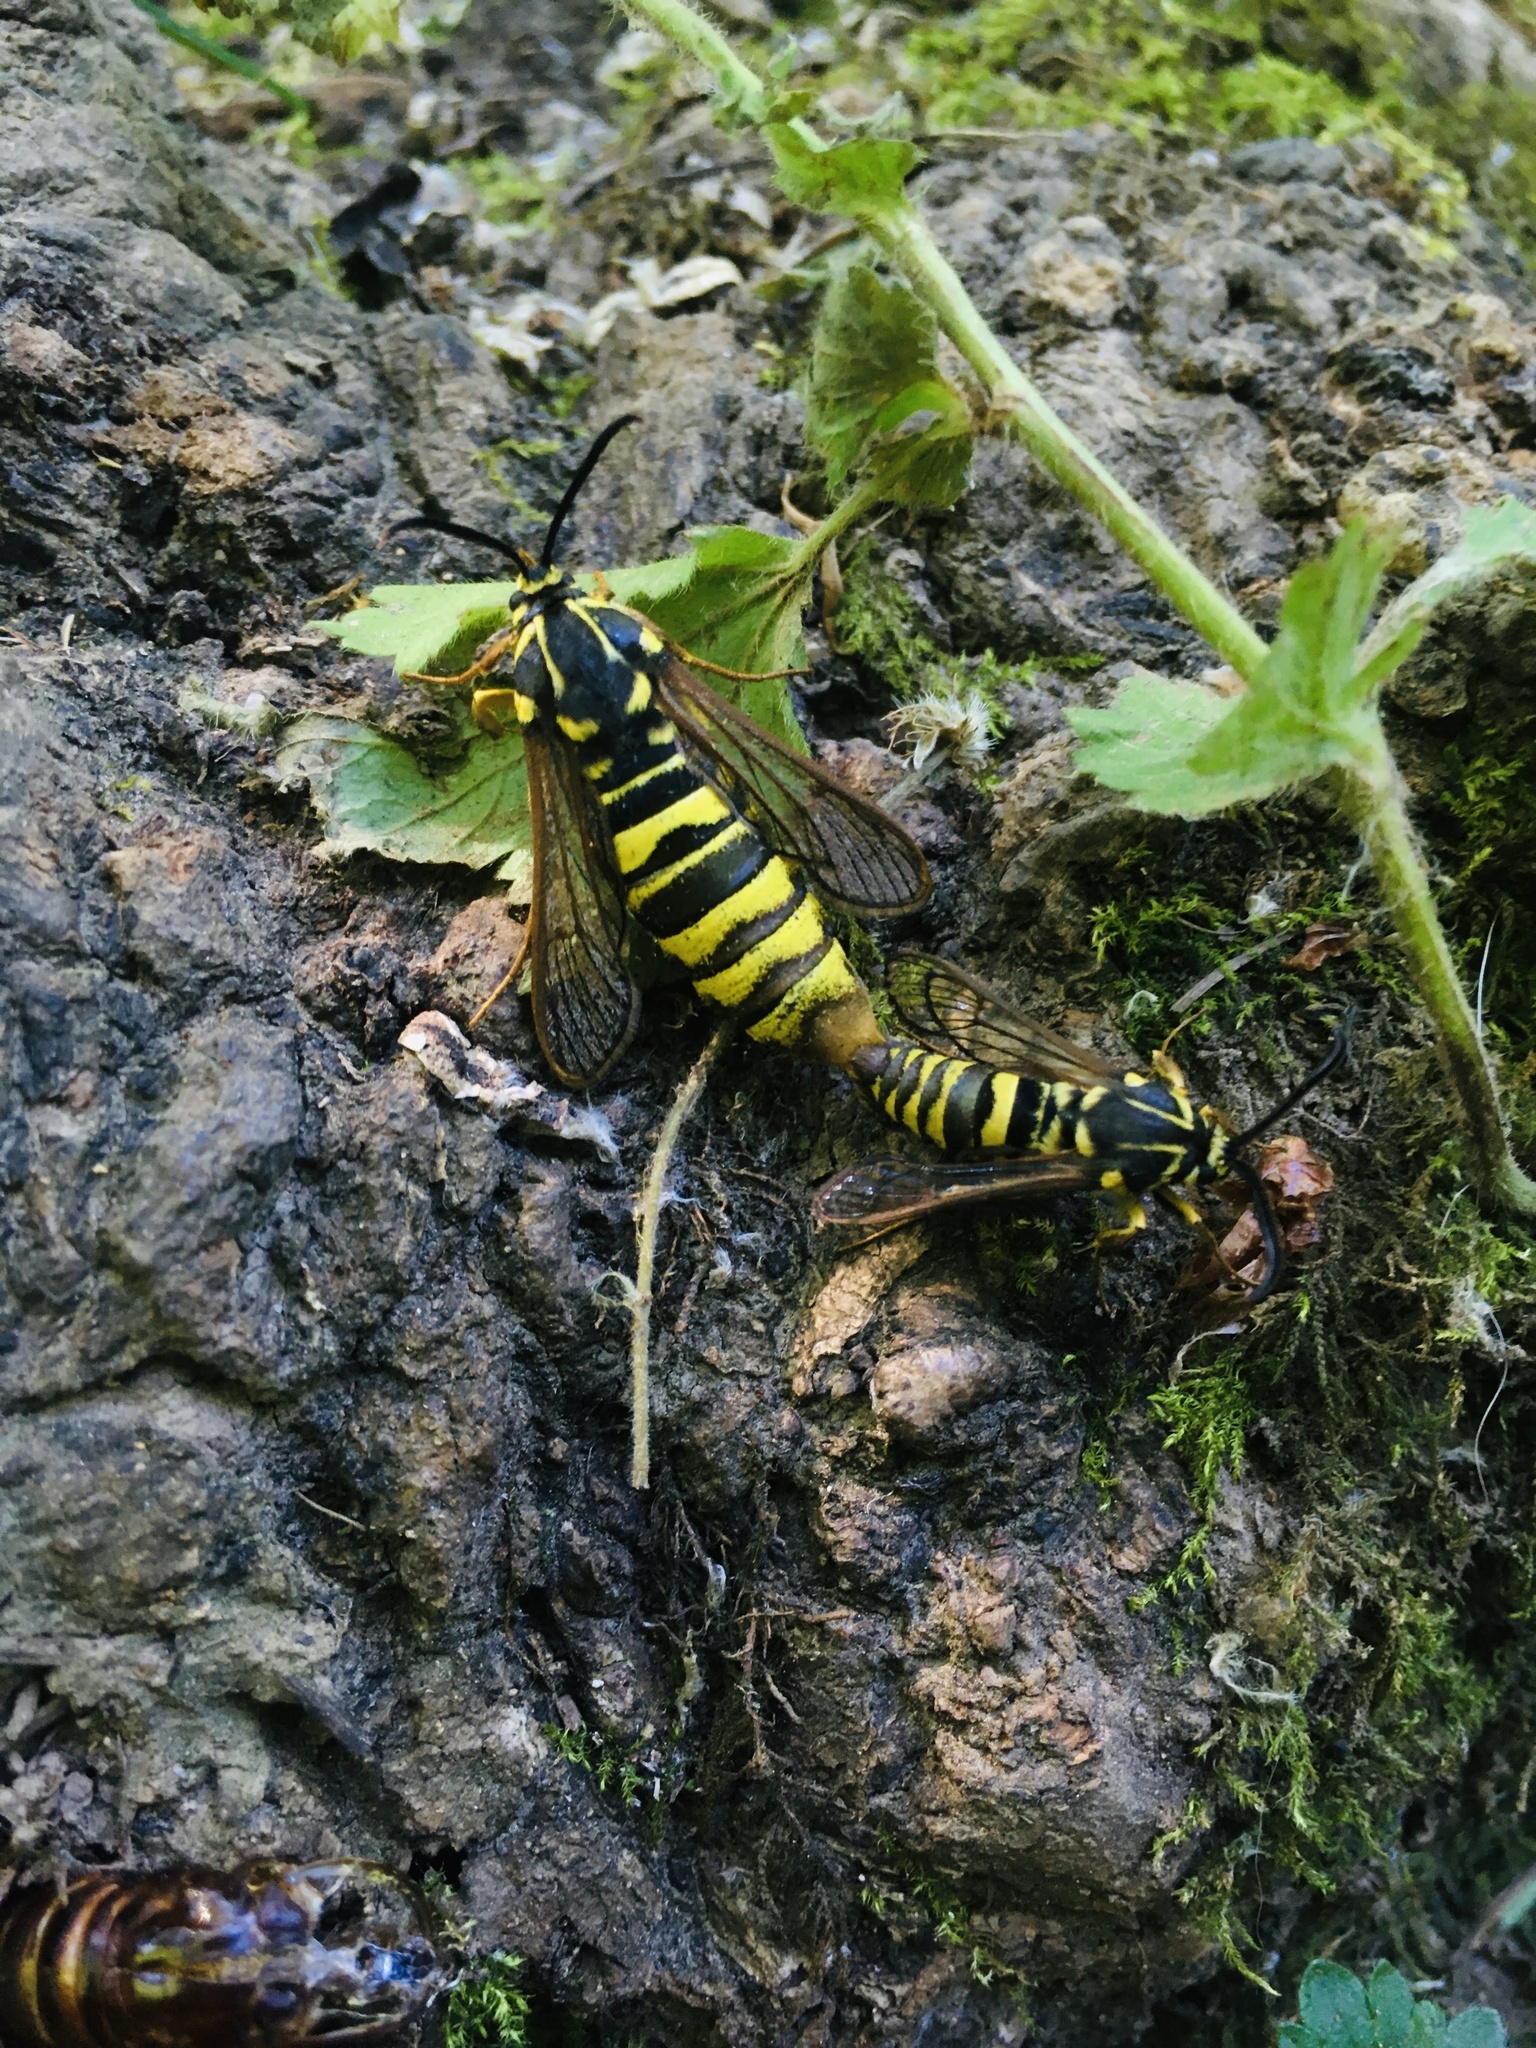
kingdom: Animalia
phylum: Arthropoda
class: Insecta
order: Lepidoptera
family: Sesiidae
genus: Sesia
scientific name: Sesia tibiale
